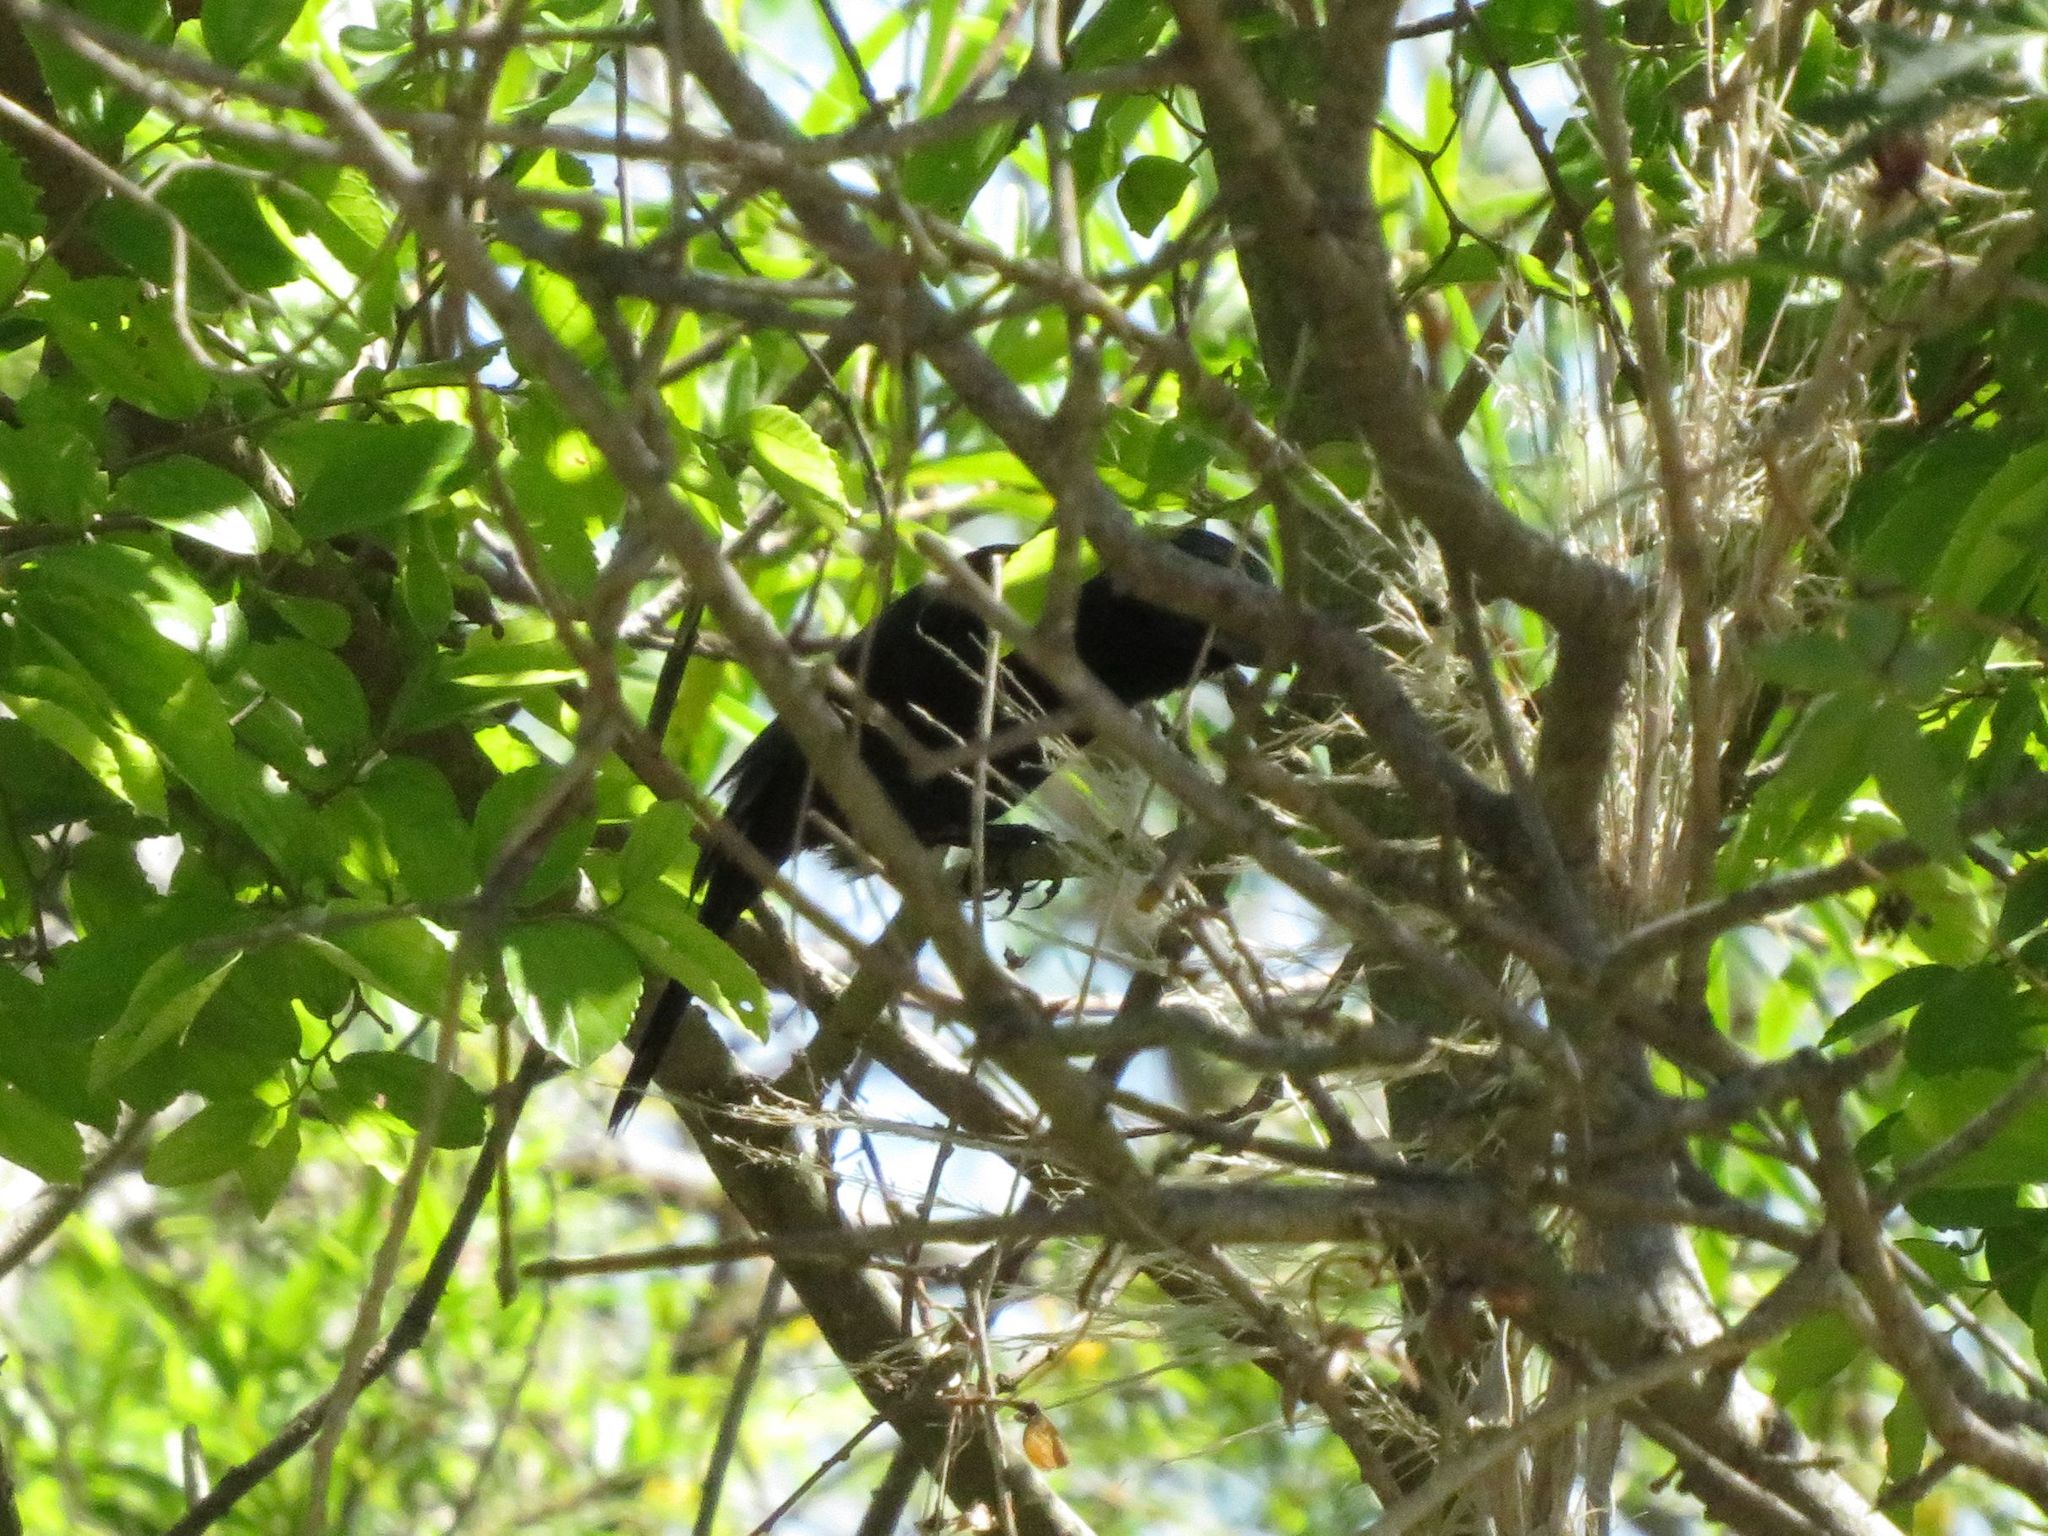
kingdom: Animalia
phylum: Chordata
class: Aves
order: Passeriformes
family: Cardinalidae
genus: Cyanoloxia
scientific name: Cyanoloxia brissonii
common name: Ultramarine grosbeak
